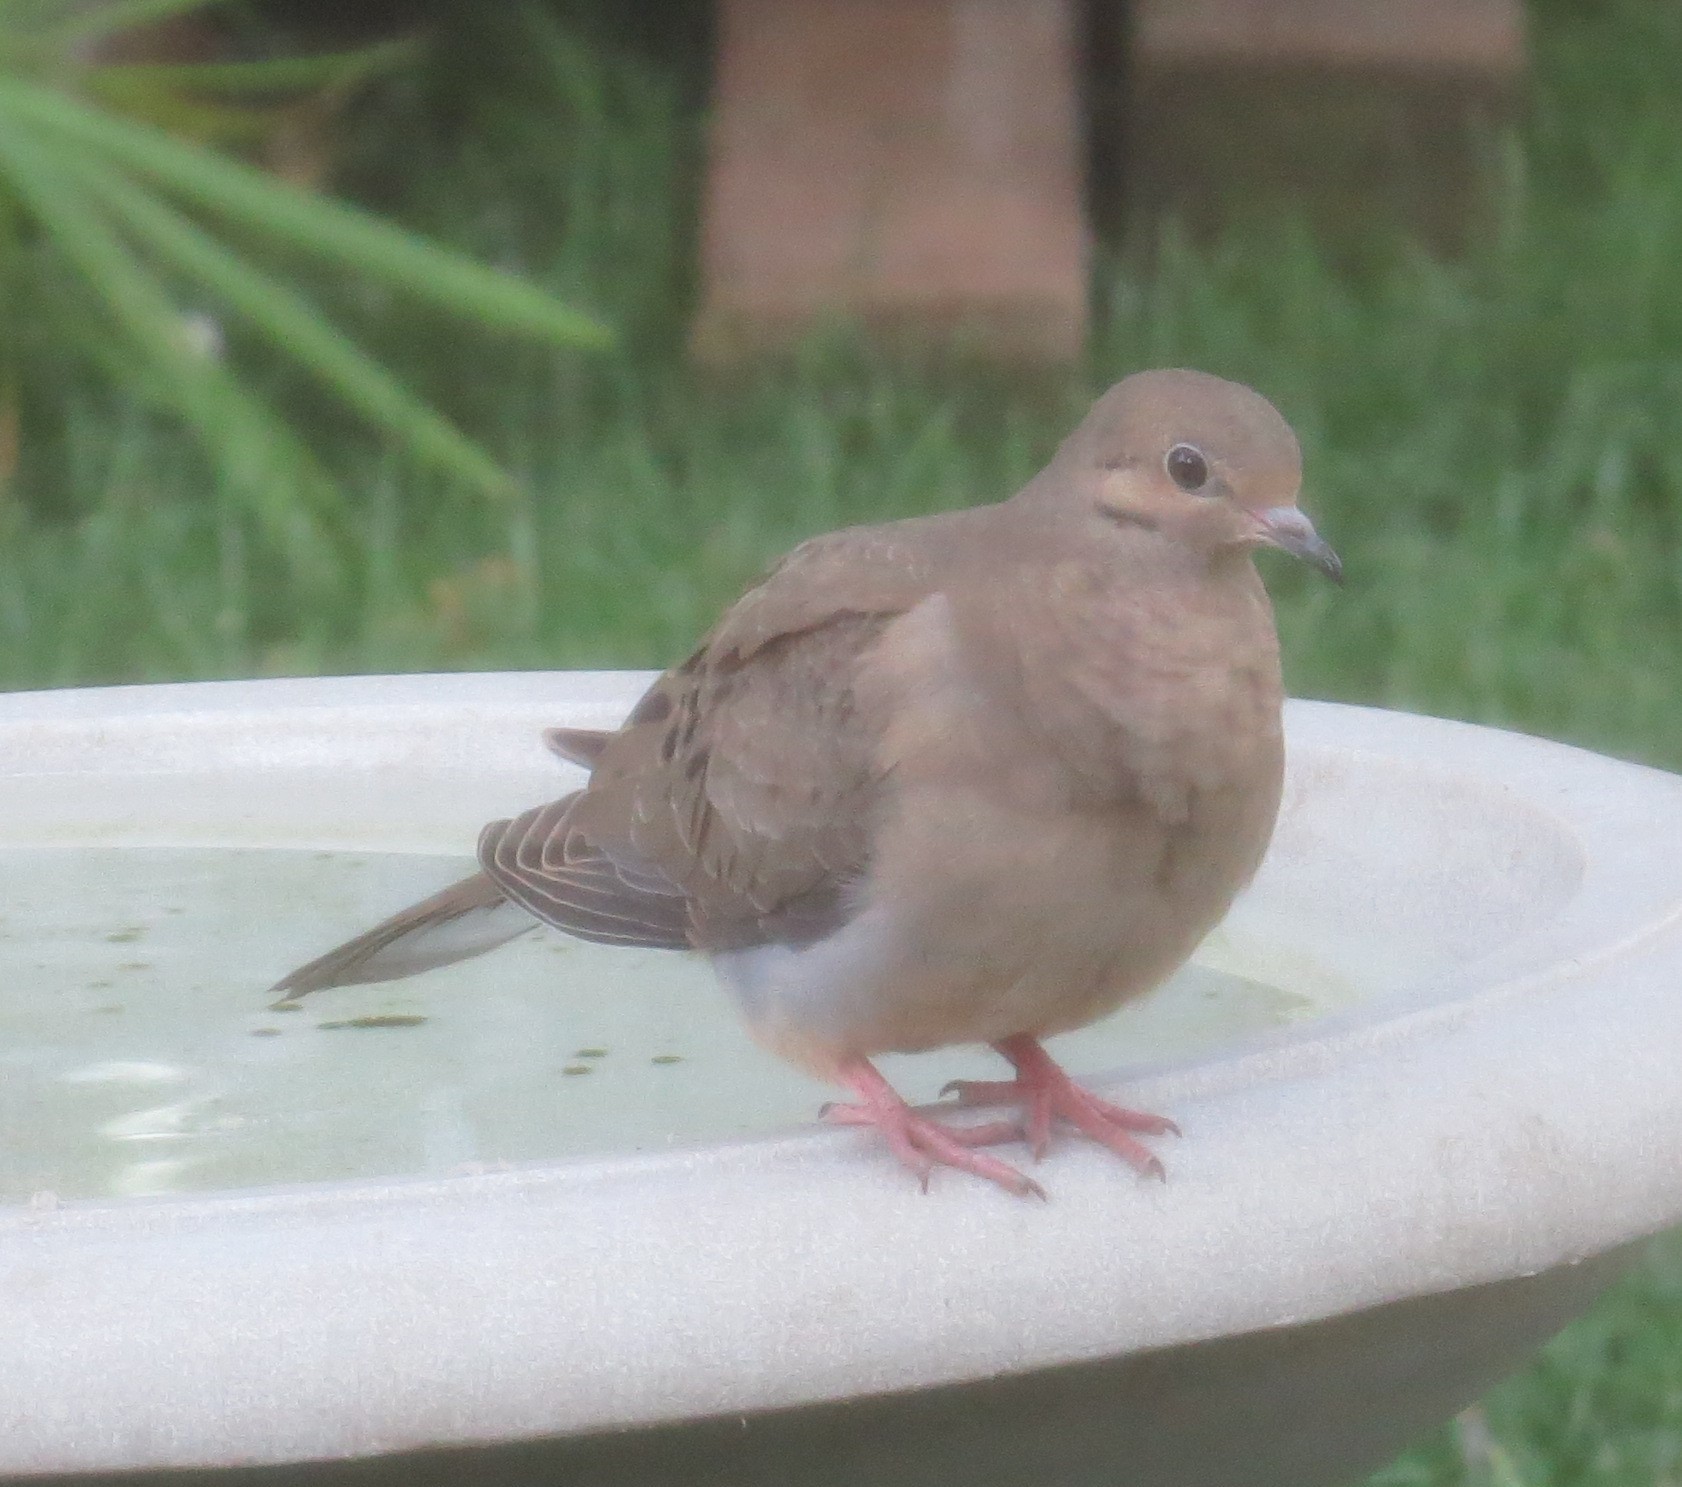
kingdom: Animalia
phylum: Chordata
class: Aves
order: Columbiformes
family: Columbidae
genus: Zenaida
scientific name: Zenaida macroura
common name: Mourning dove
